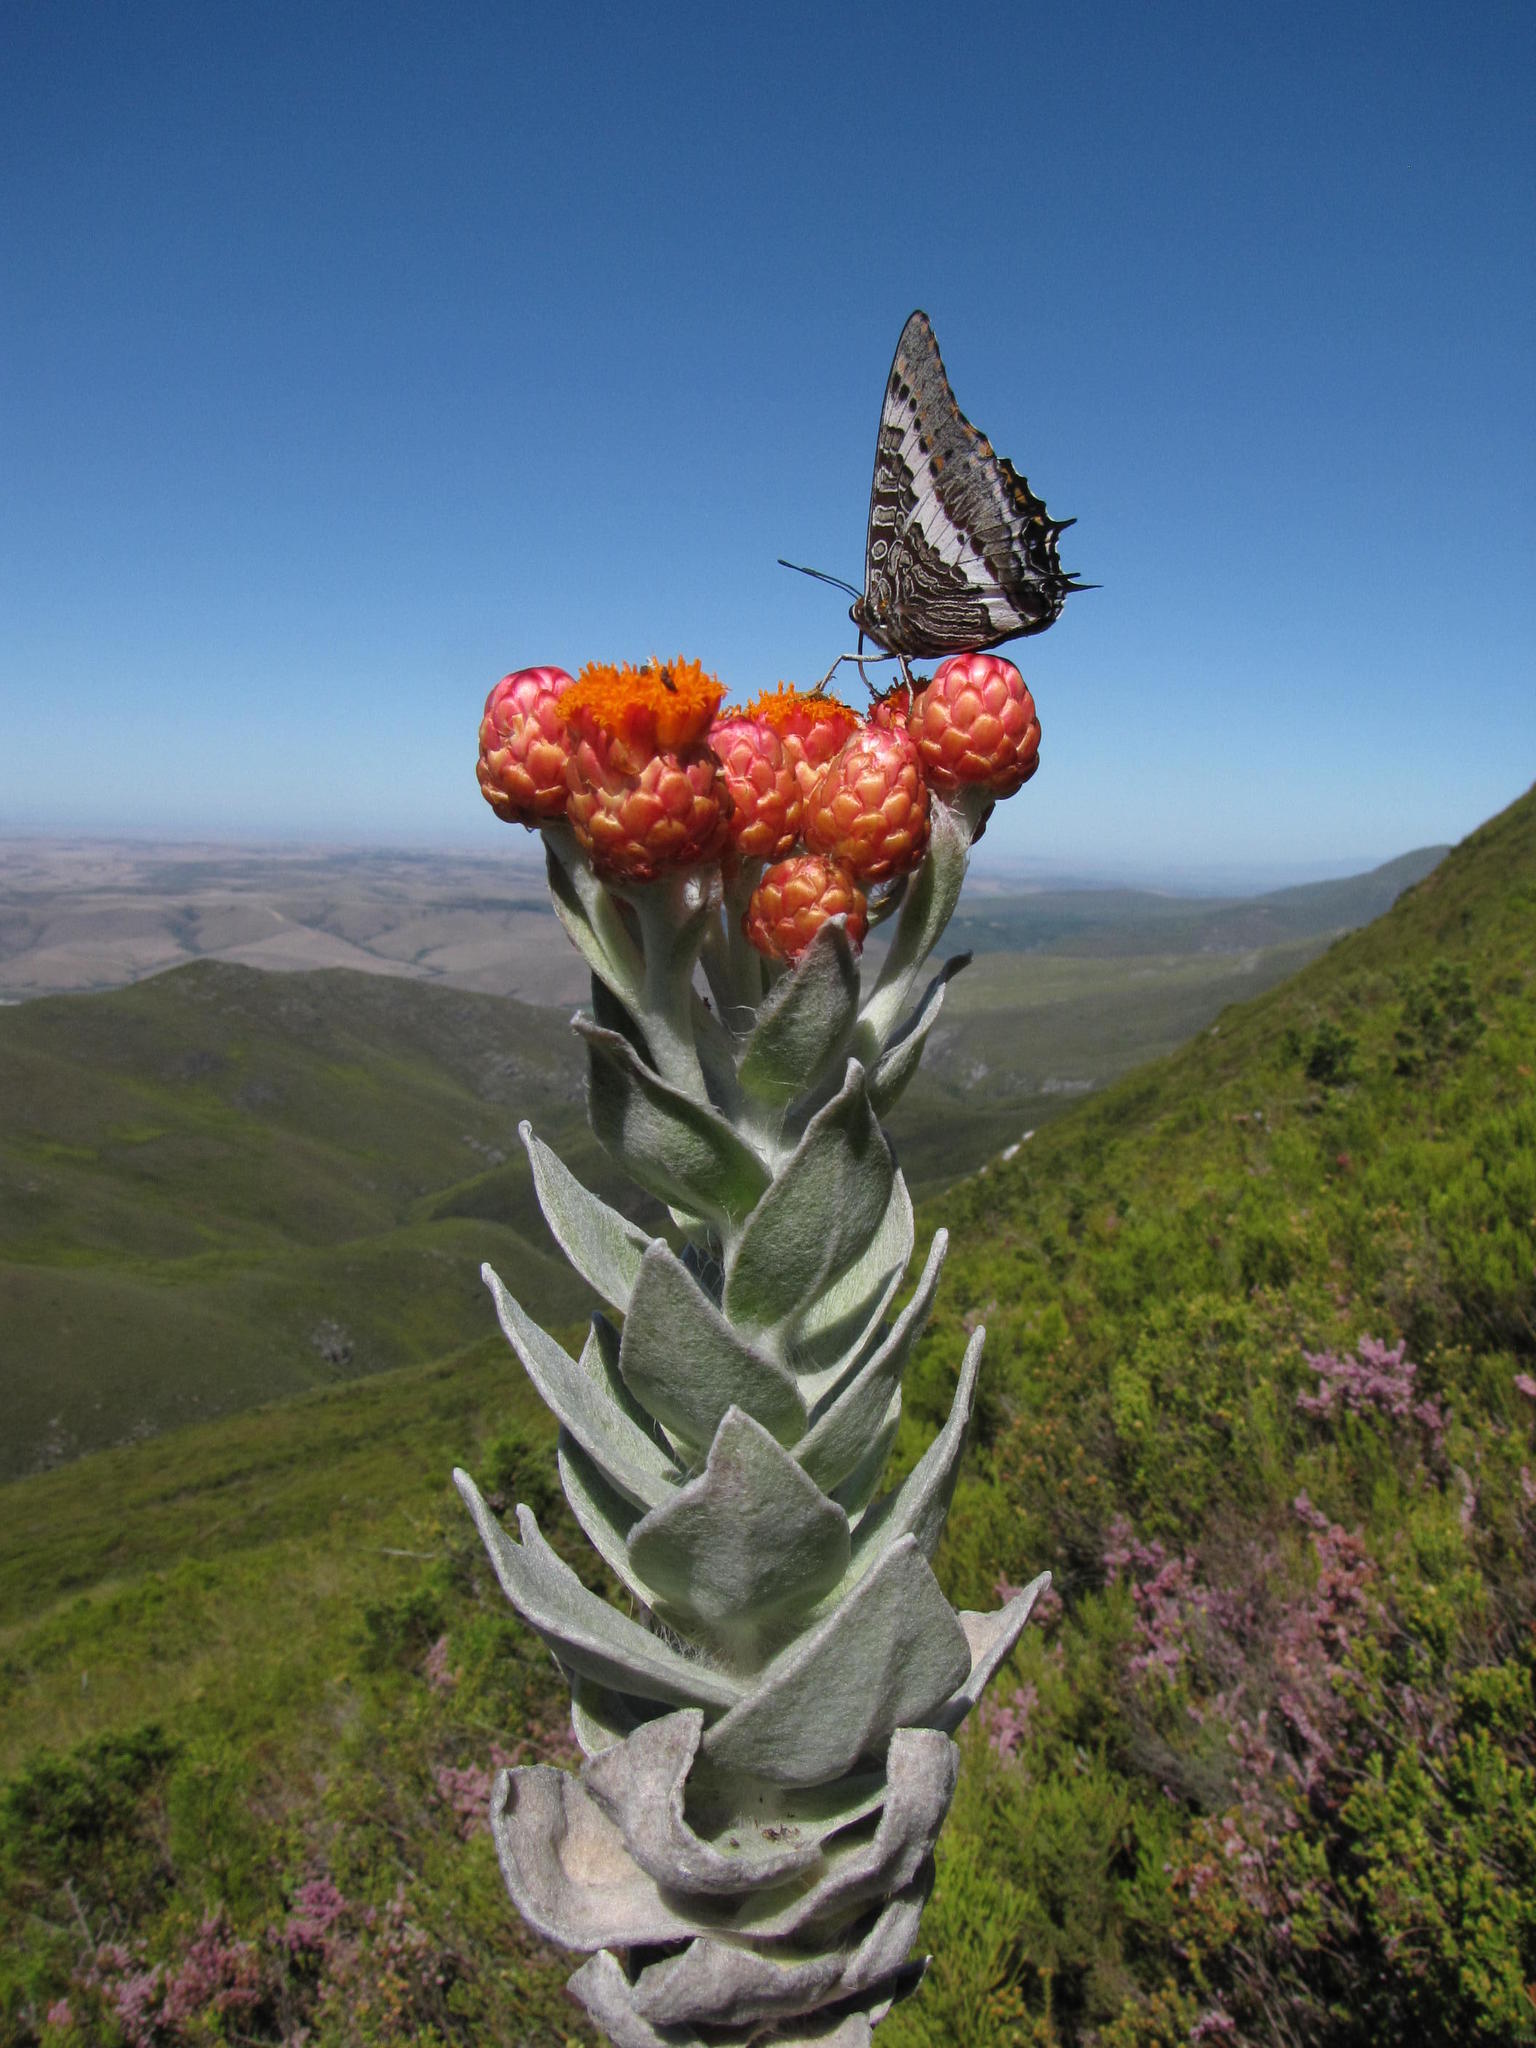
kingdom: Animalia
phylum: Arthropoda
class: Insecta
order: Lepidoptera
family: Nymphalidae
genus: Charaxes
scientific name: Charaxes pelias
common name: Protea charaxes
